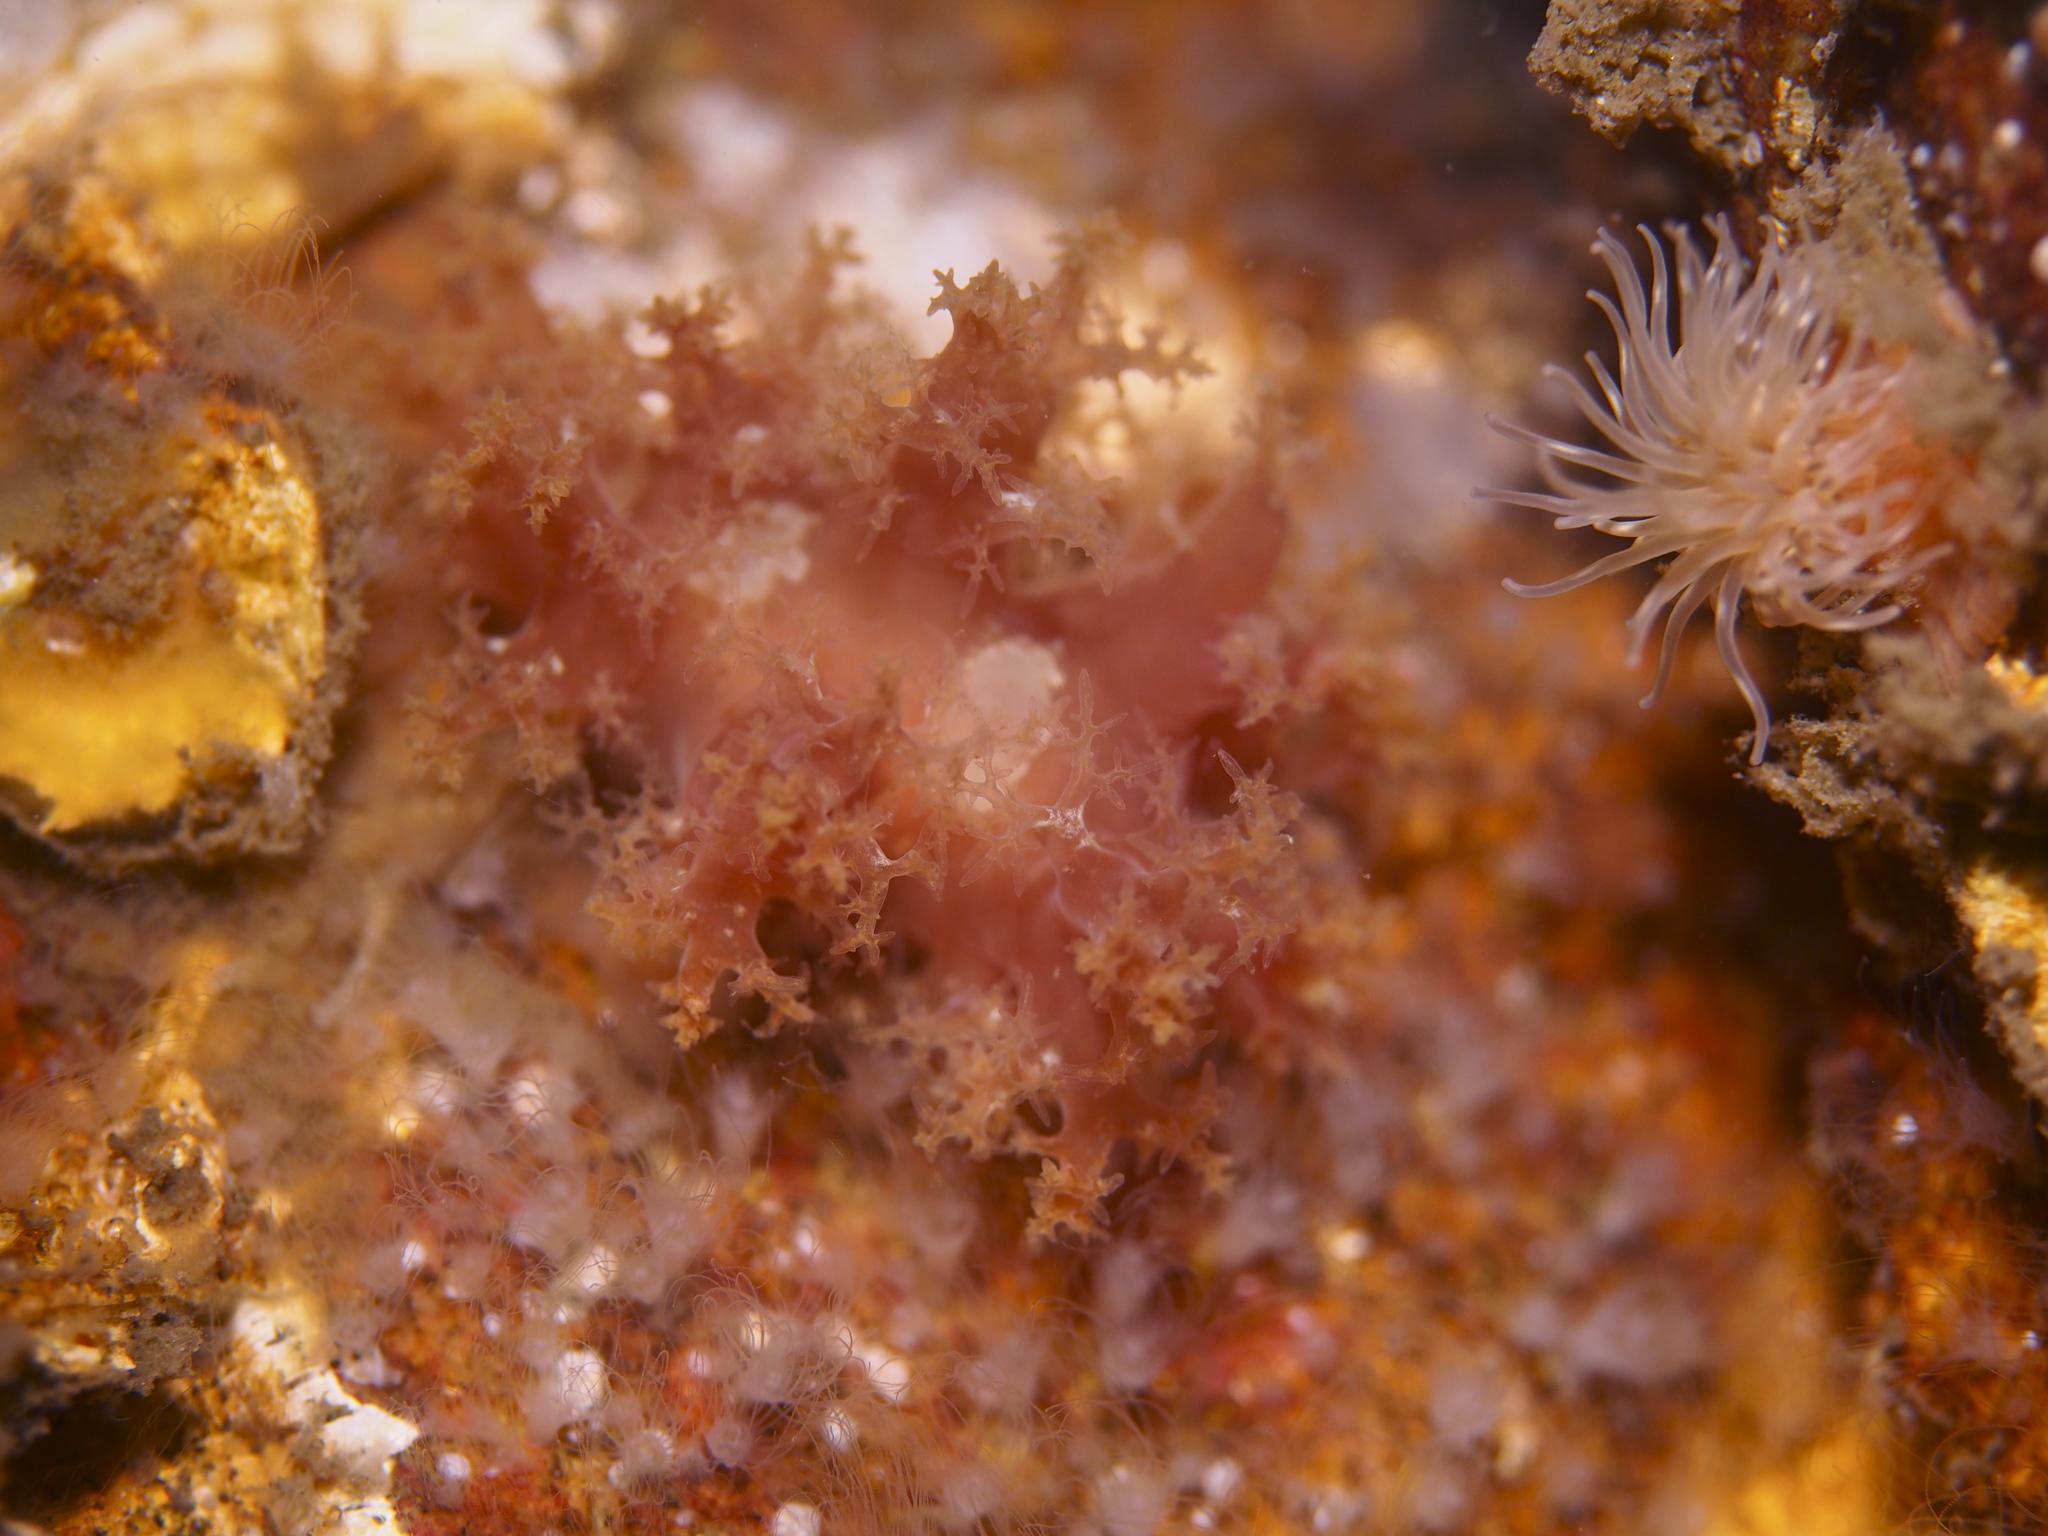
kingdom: Animalia
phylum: Mollusca
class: Gastropoda
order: Nudibranchia
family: Dendronotidae
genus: Dendronotus
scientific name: Dendronotus frondosus
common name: Bushy-backed nudibranch
